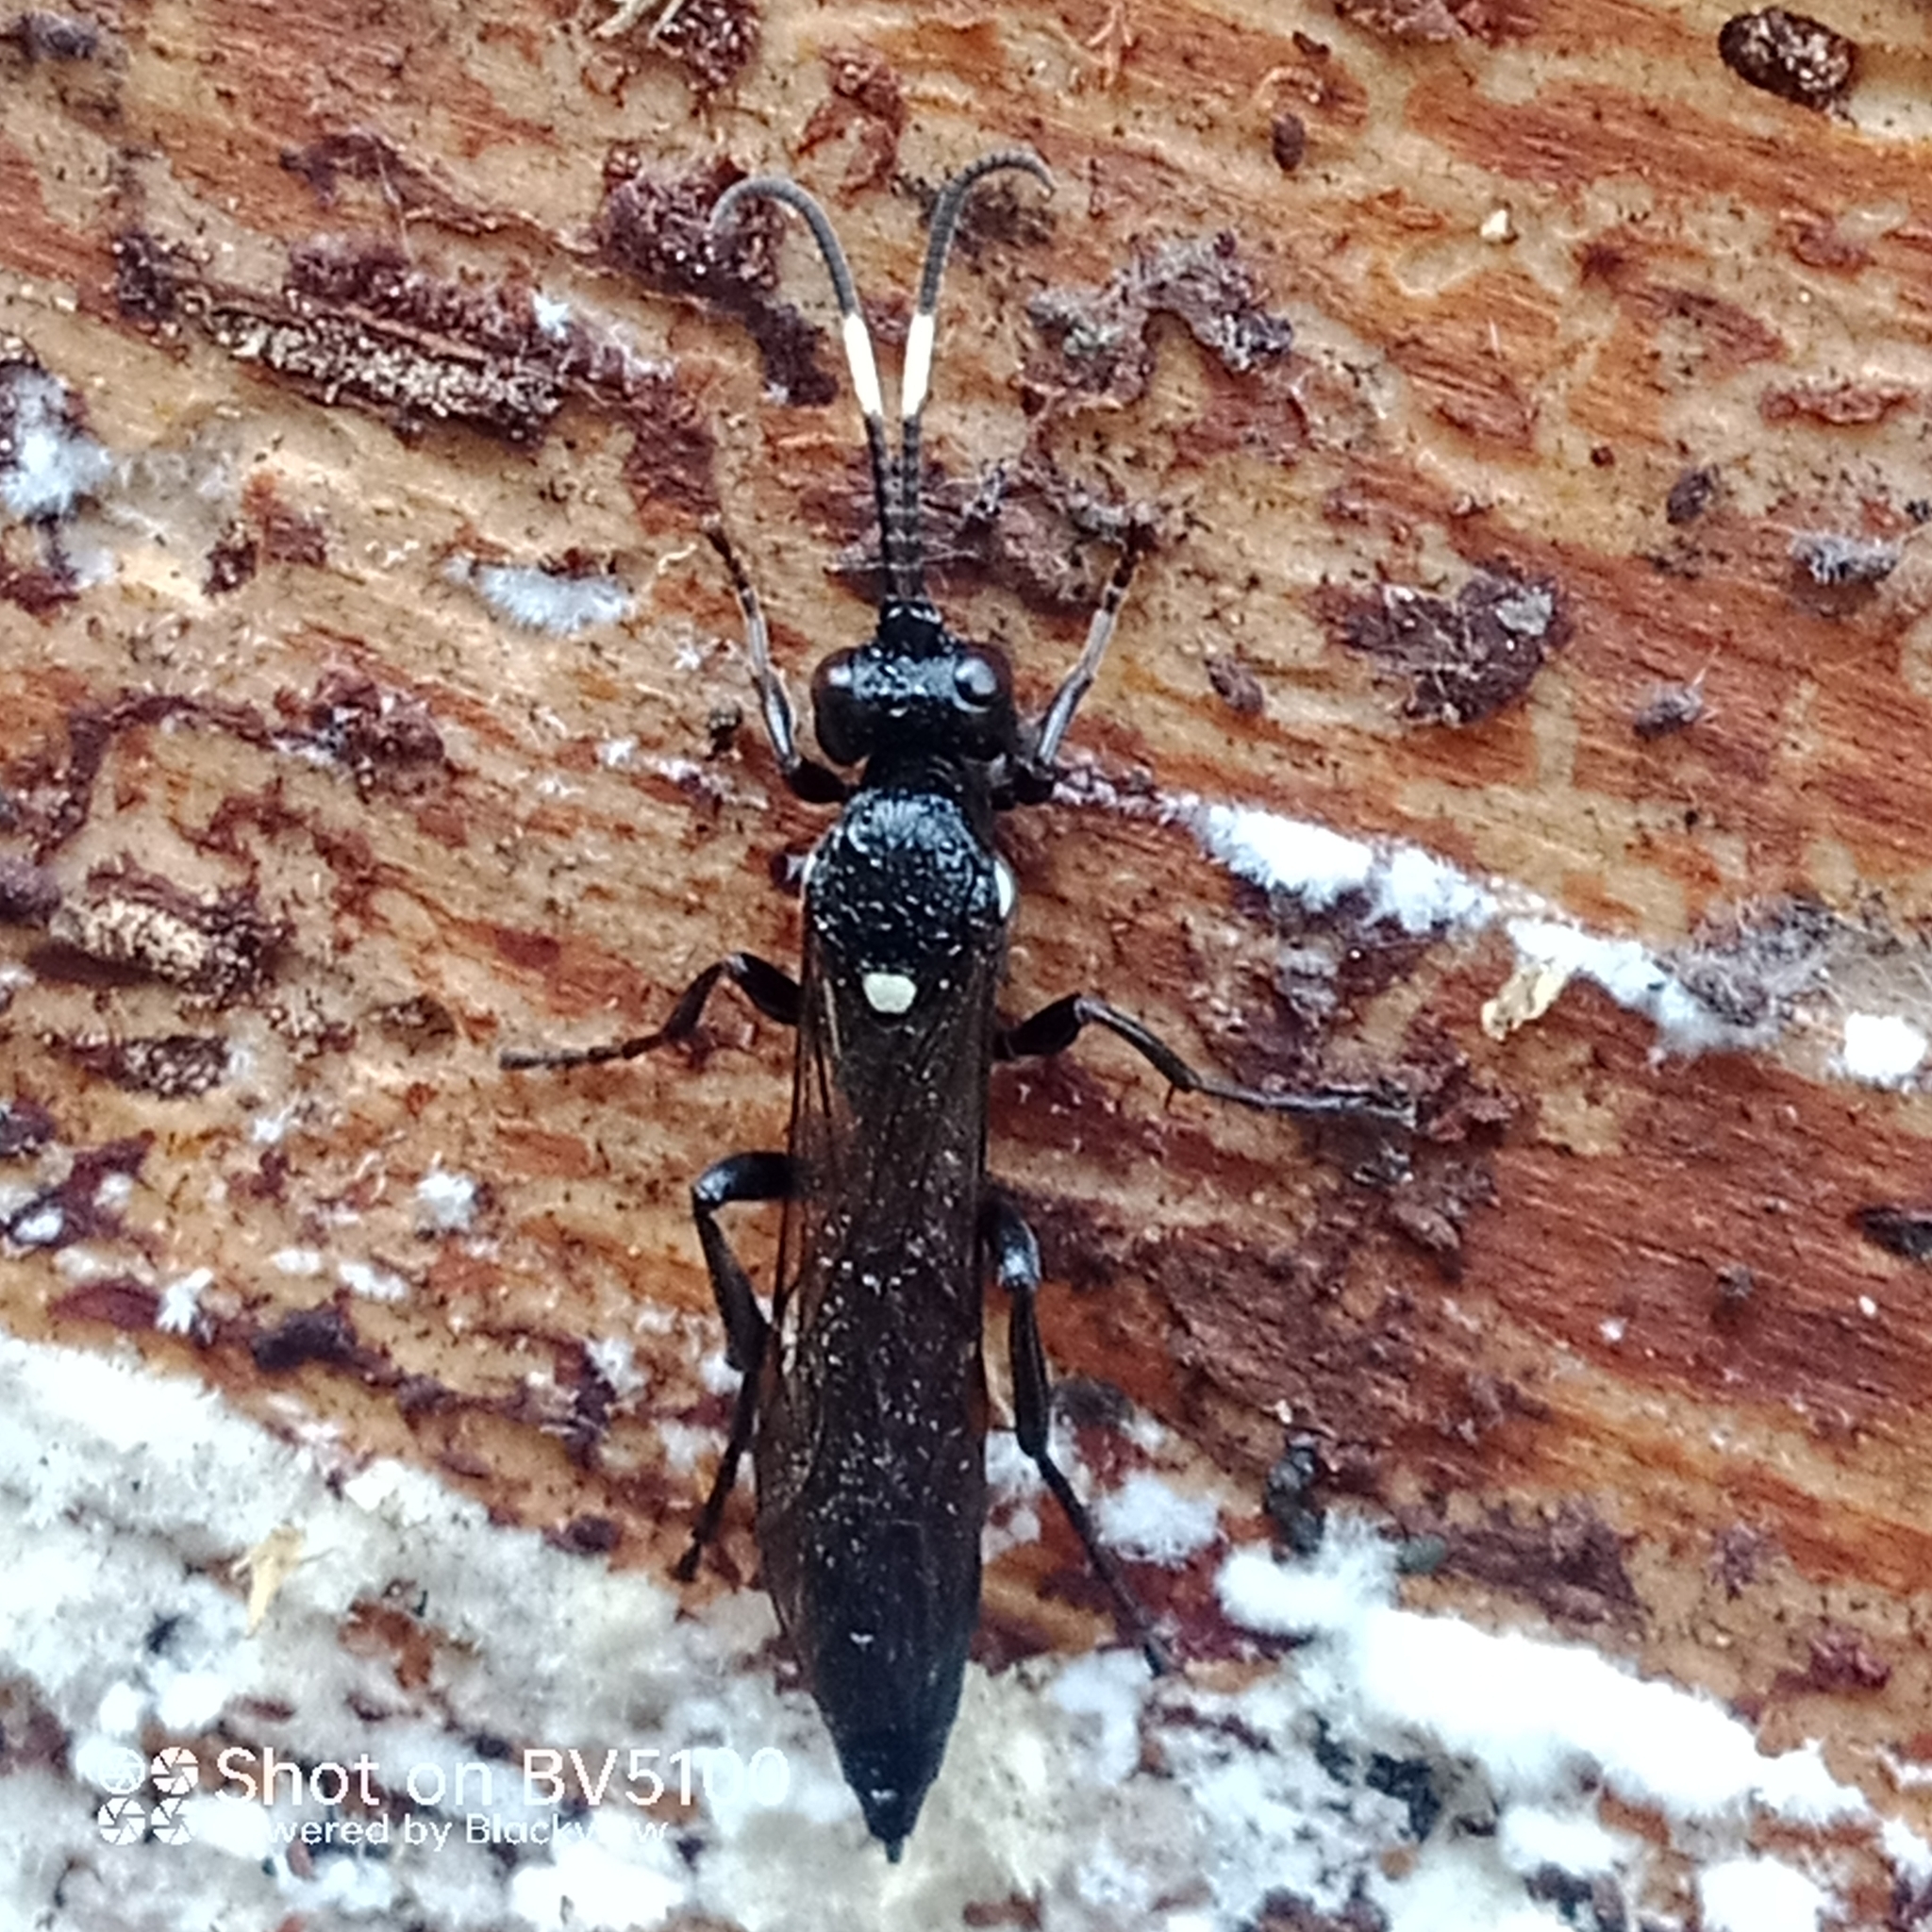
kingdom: Animalia
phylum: Arthropoda
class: Insecta
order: Hymenoptera
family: Ichneumonidae
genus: Ichneumon
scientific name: Ichneumon lugens
